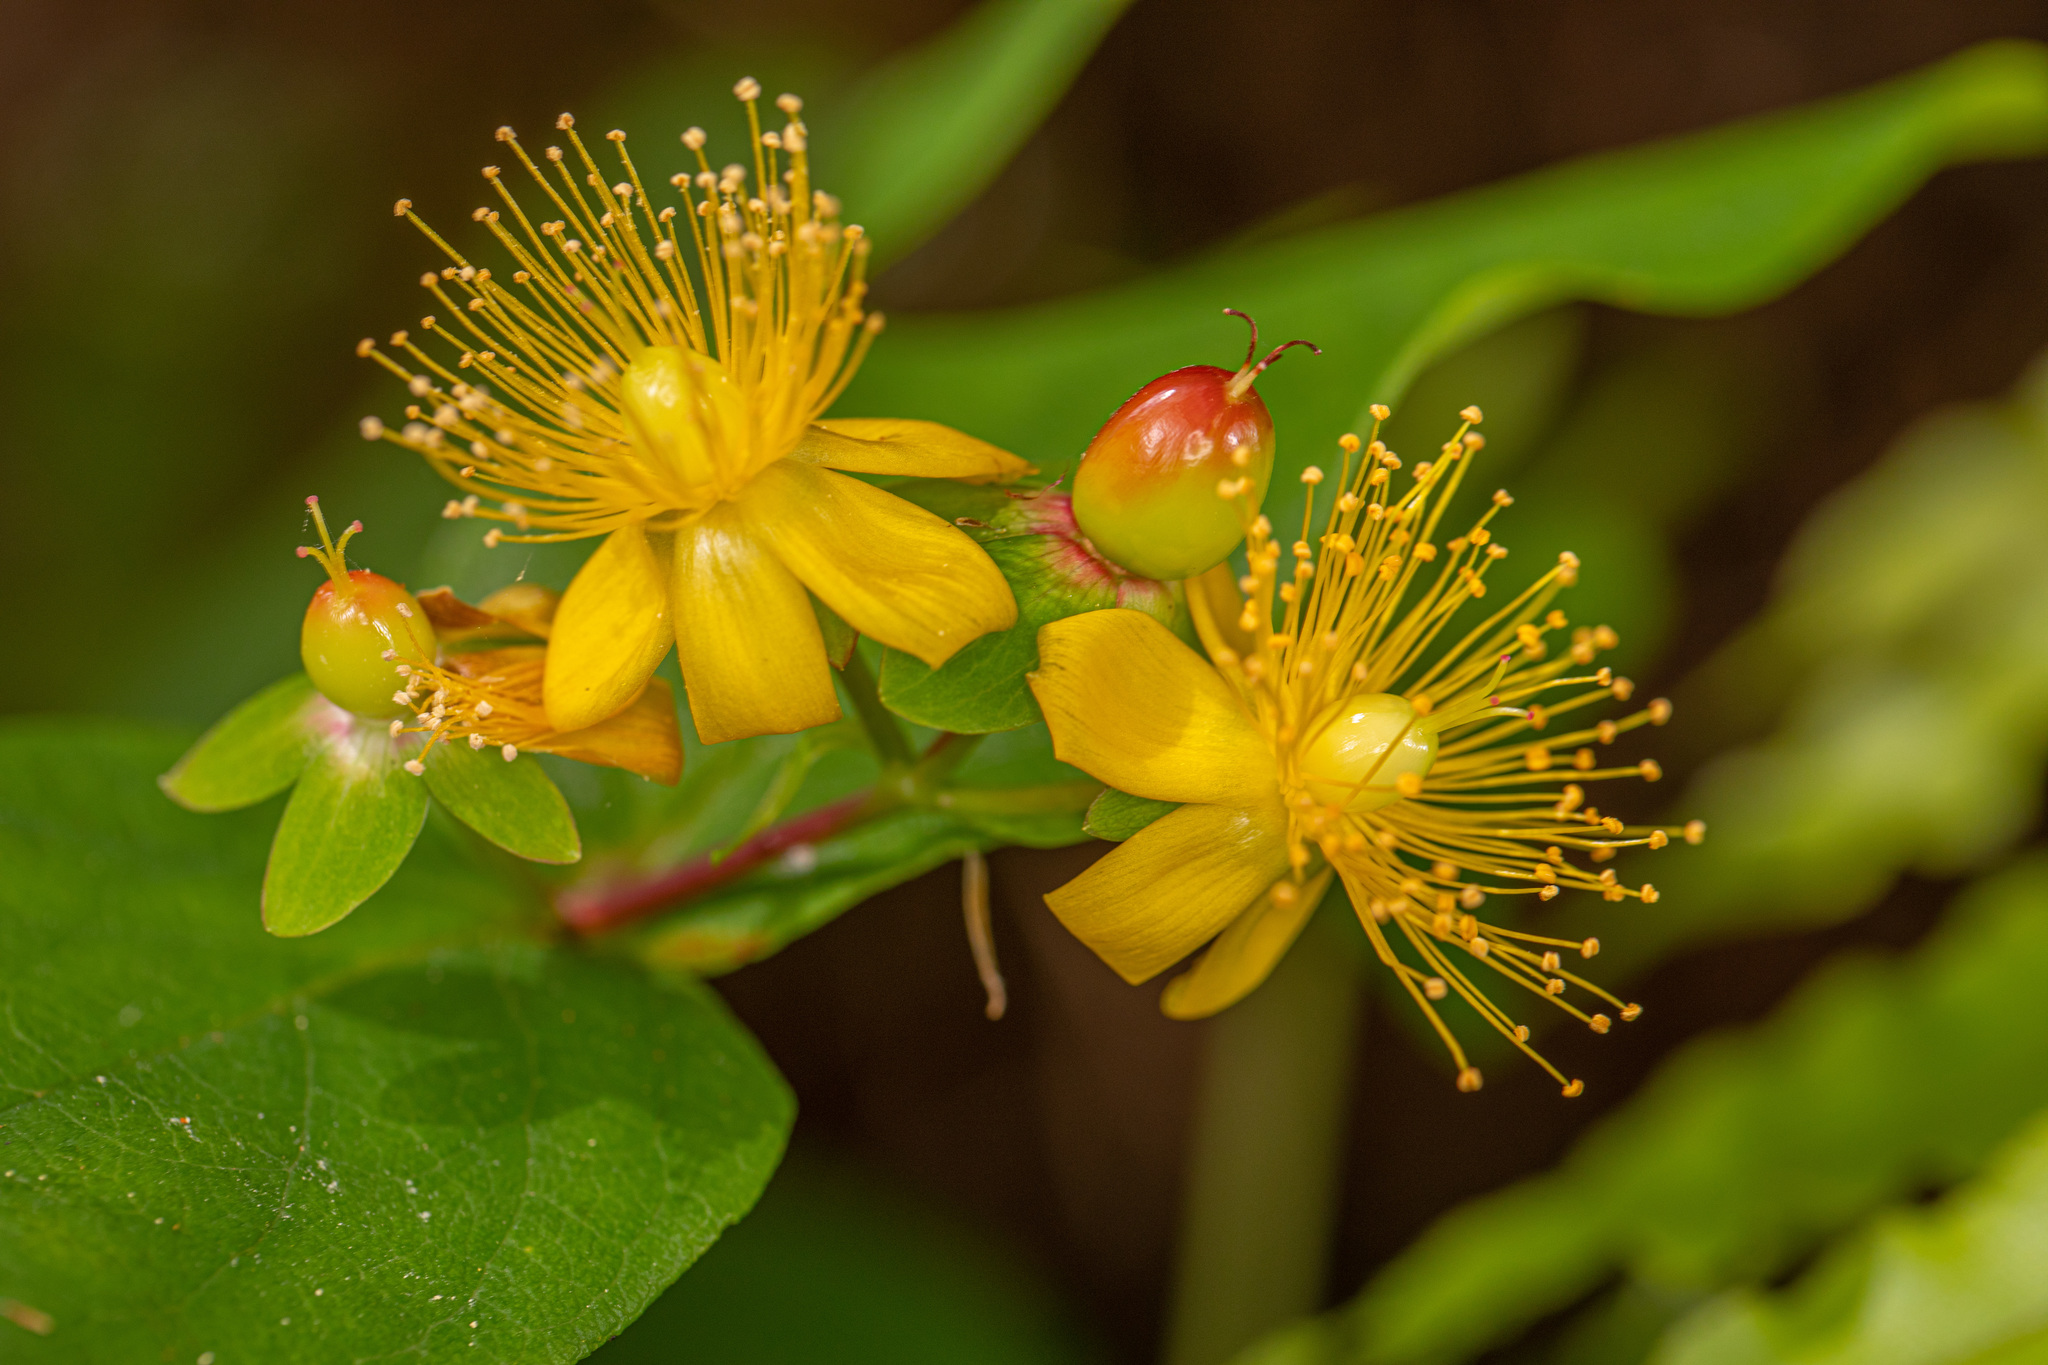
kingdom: Plantae
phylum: Tracheophyta
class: Magnoliopsida
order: Malpighiales
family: Hypericaceae
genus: Hypericum
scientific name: Hypericum androsaemum
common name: Sweet-amber
